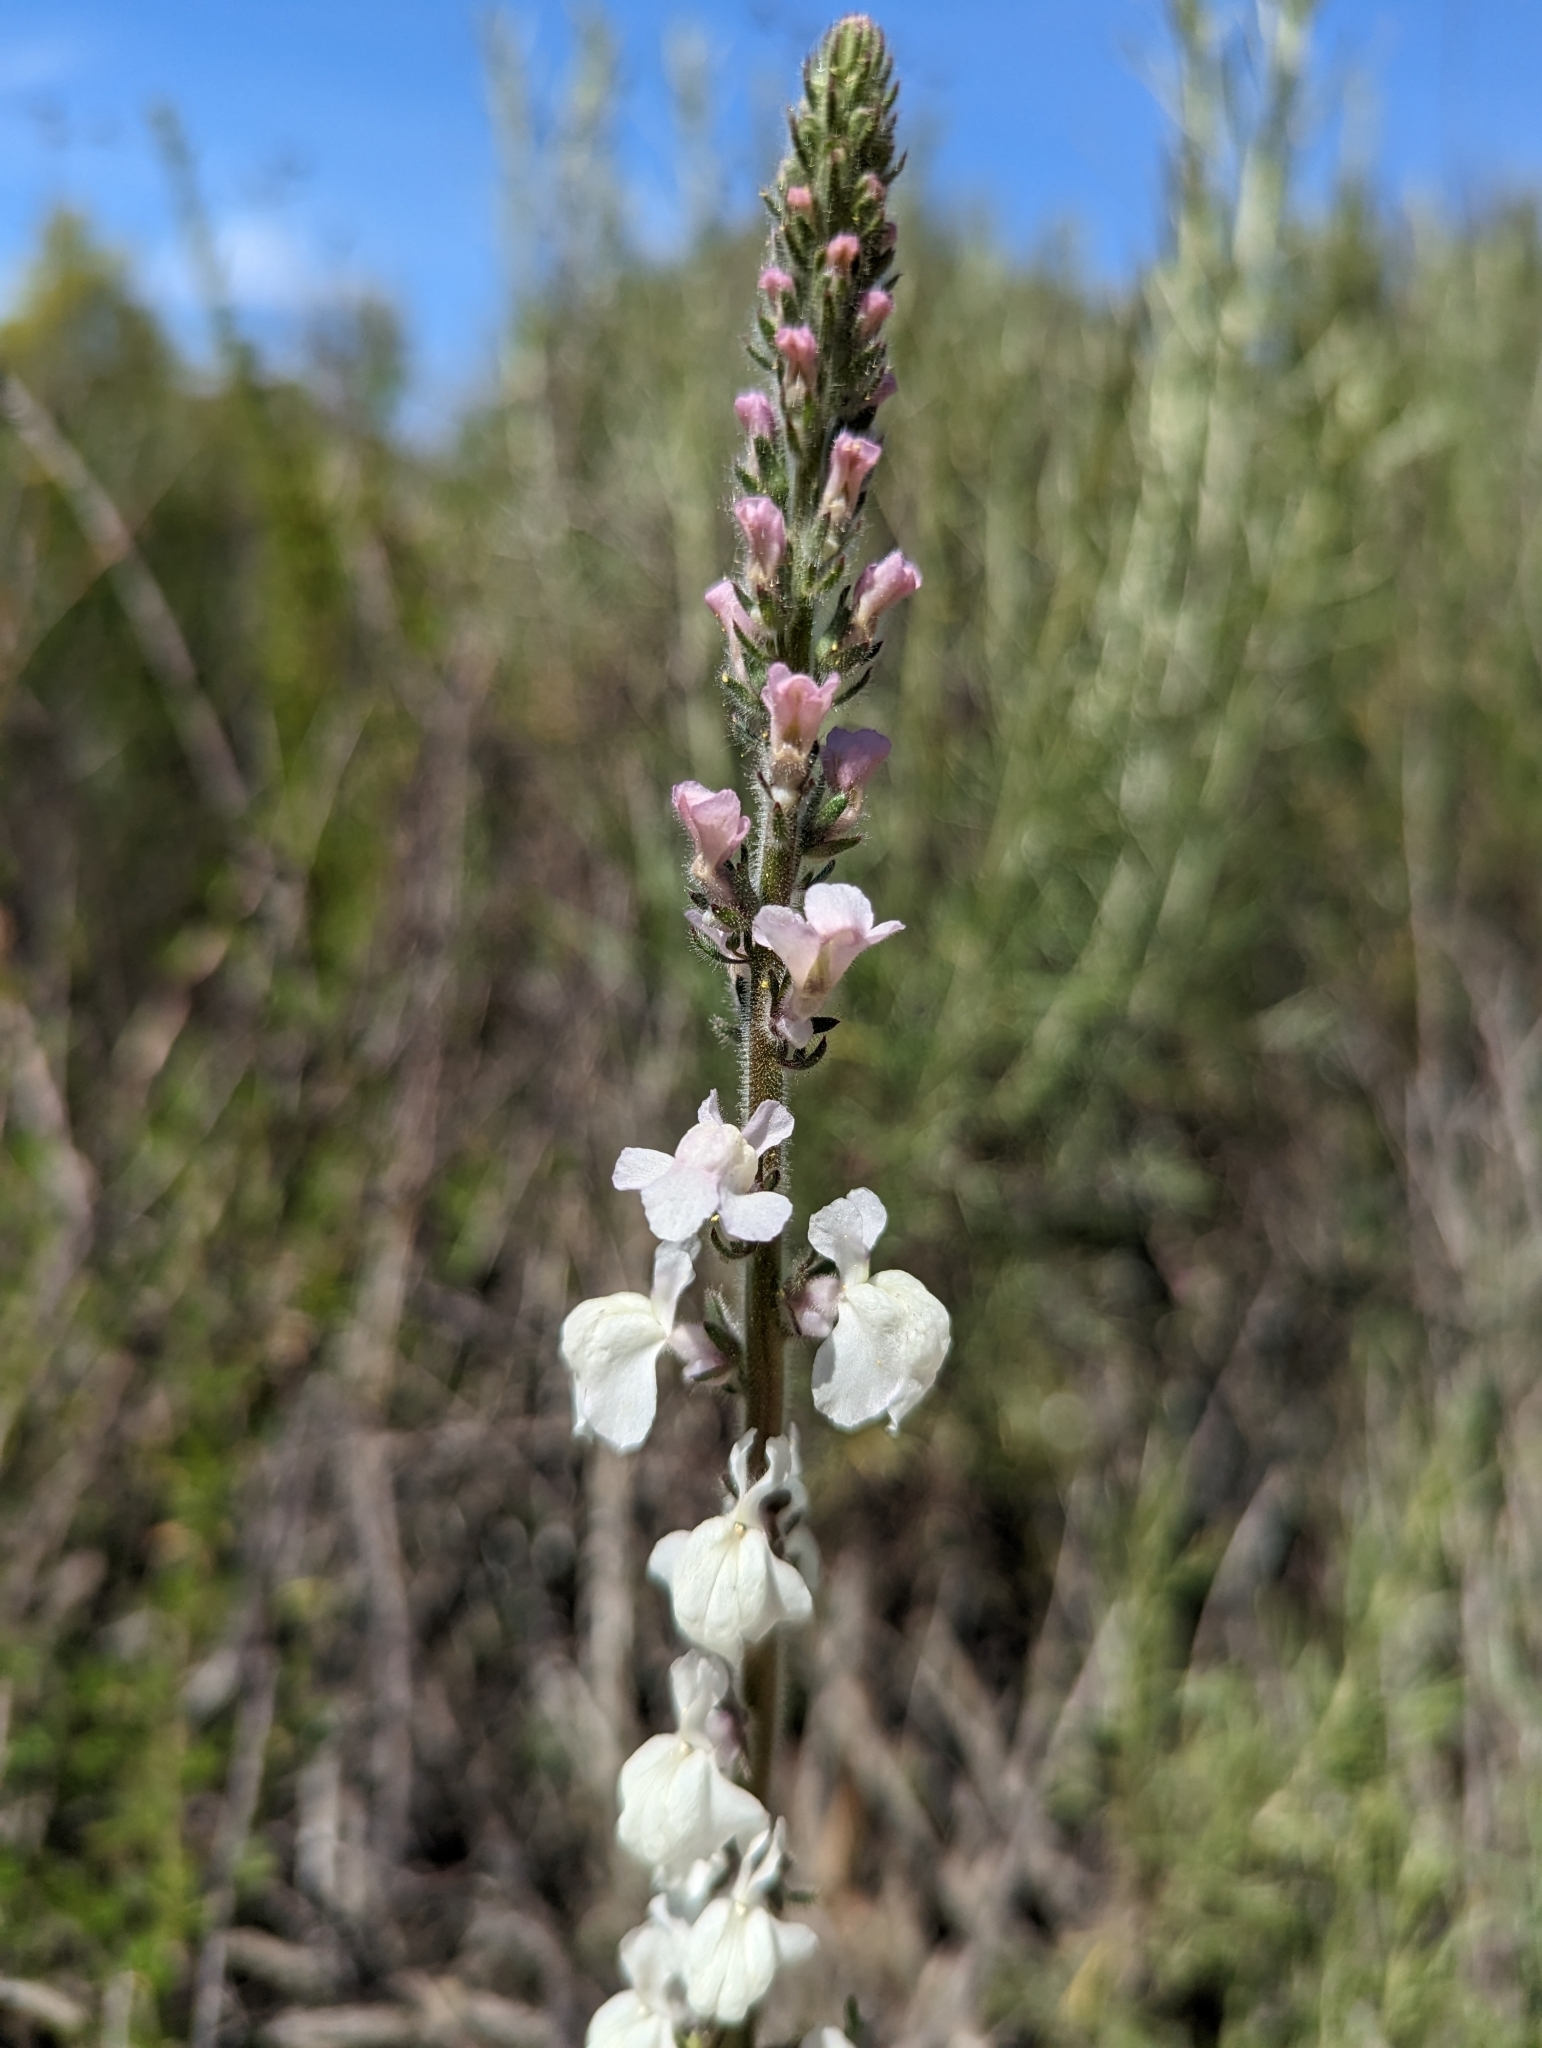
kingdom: Plantae
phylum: Tracheophyta
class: Magnoliopsida
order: Lamiales
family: Plantaginaceae
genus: Sairocarpus
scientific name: Sairocarpus coulterianus
